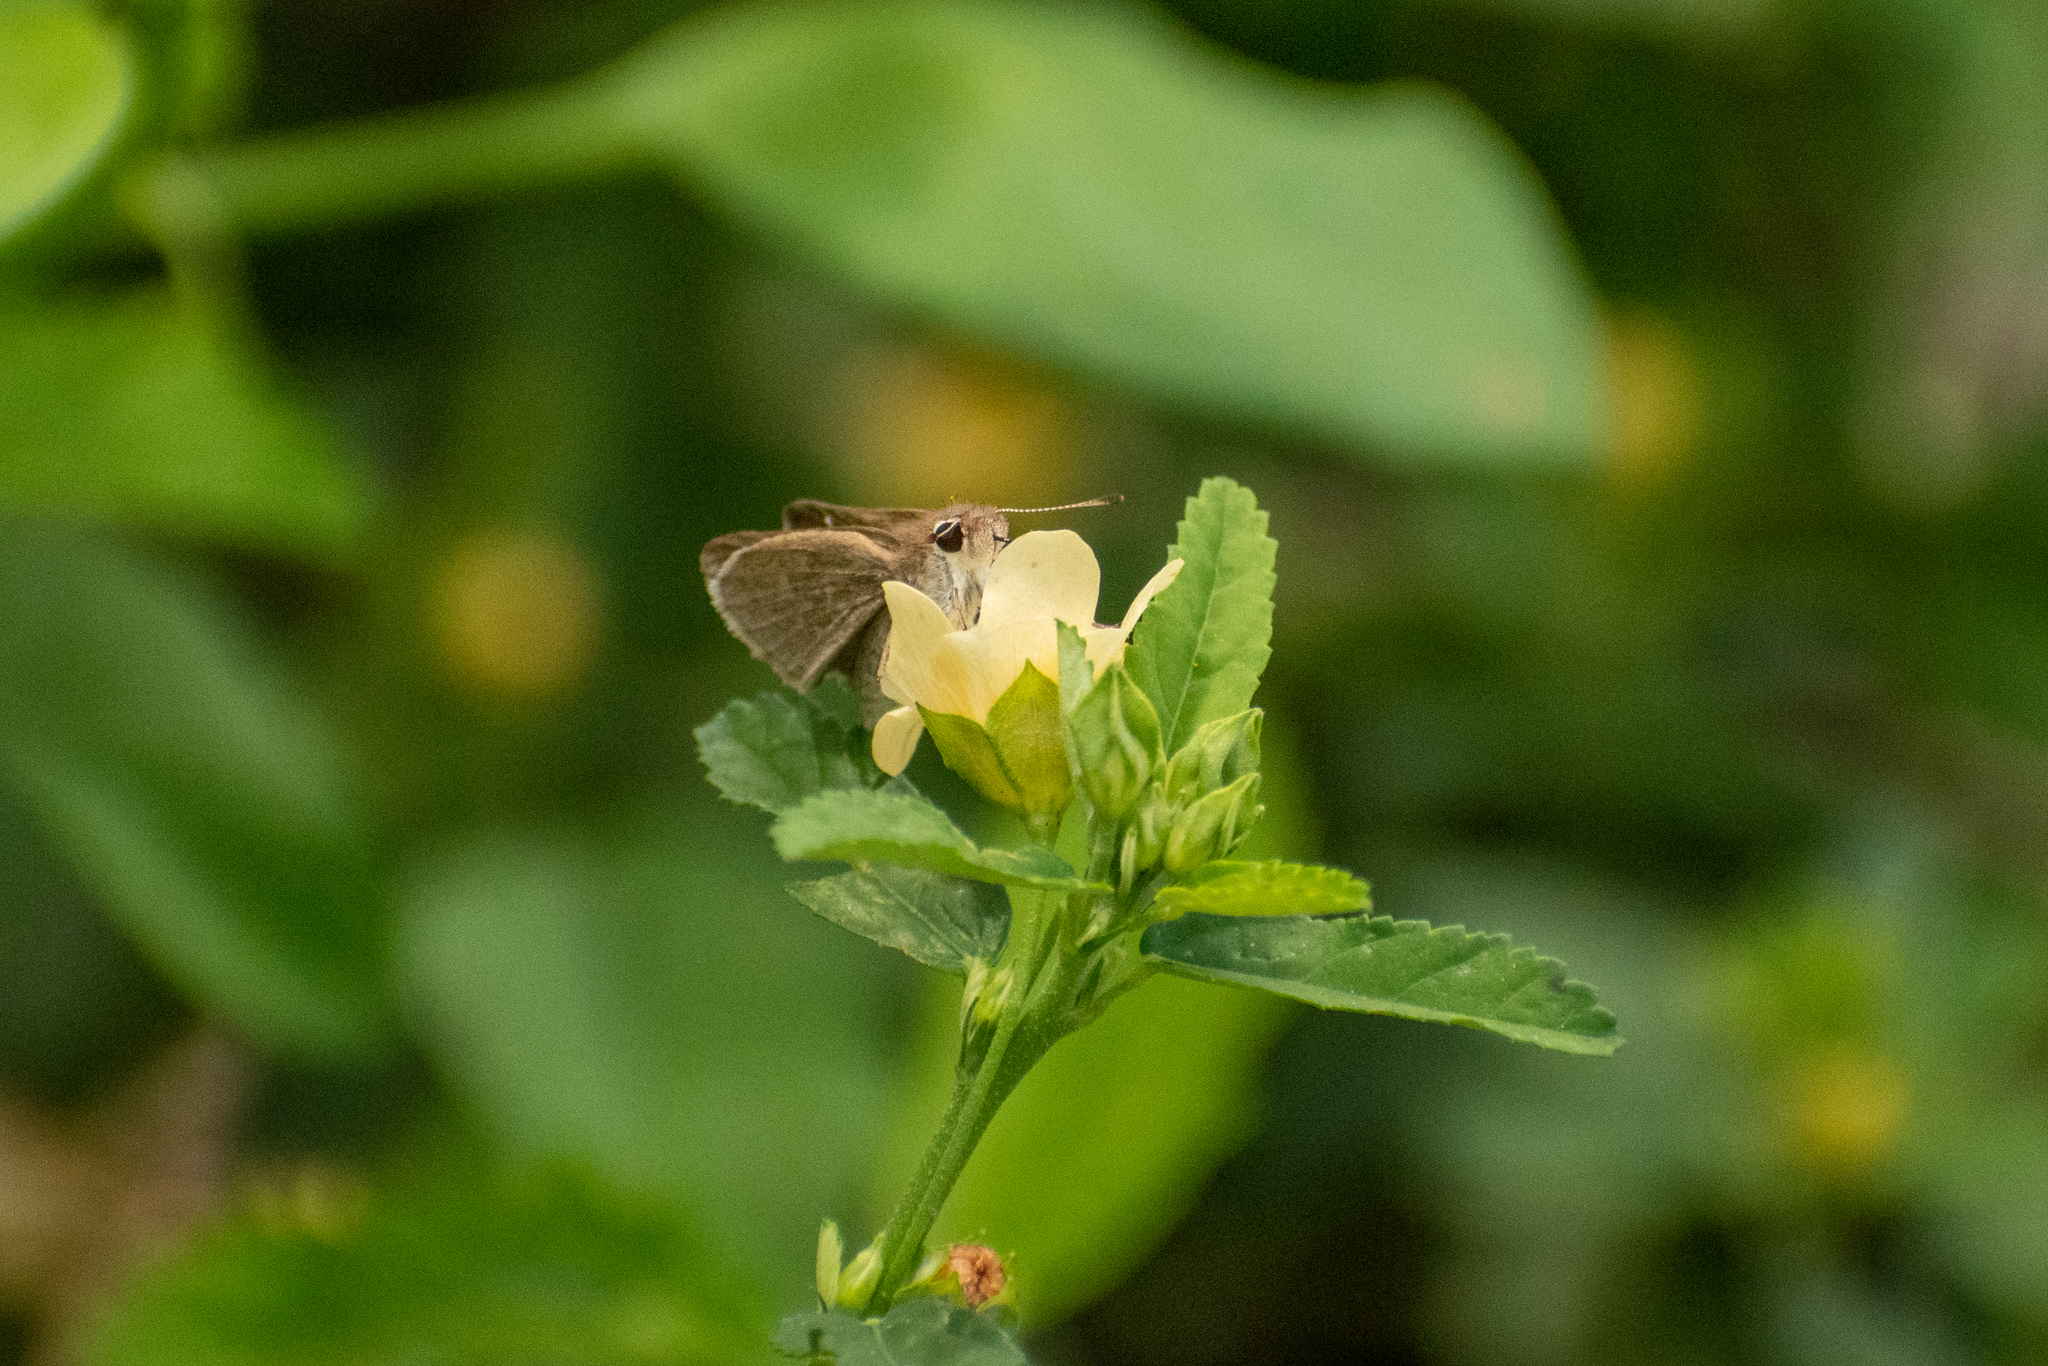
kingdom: Animalia
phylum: Arthropoda
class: Insecta
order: Lepidoptera
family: Hesperiidae
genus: Lerodea
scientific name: Lerodea eufala
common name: Eufala skipper
